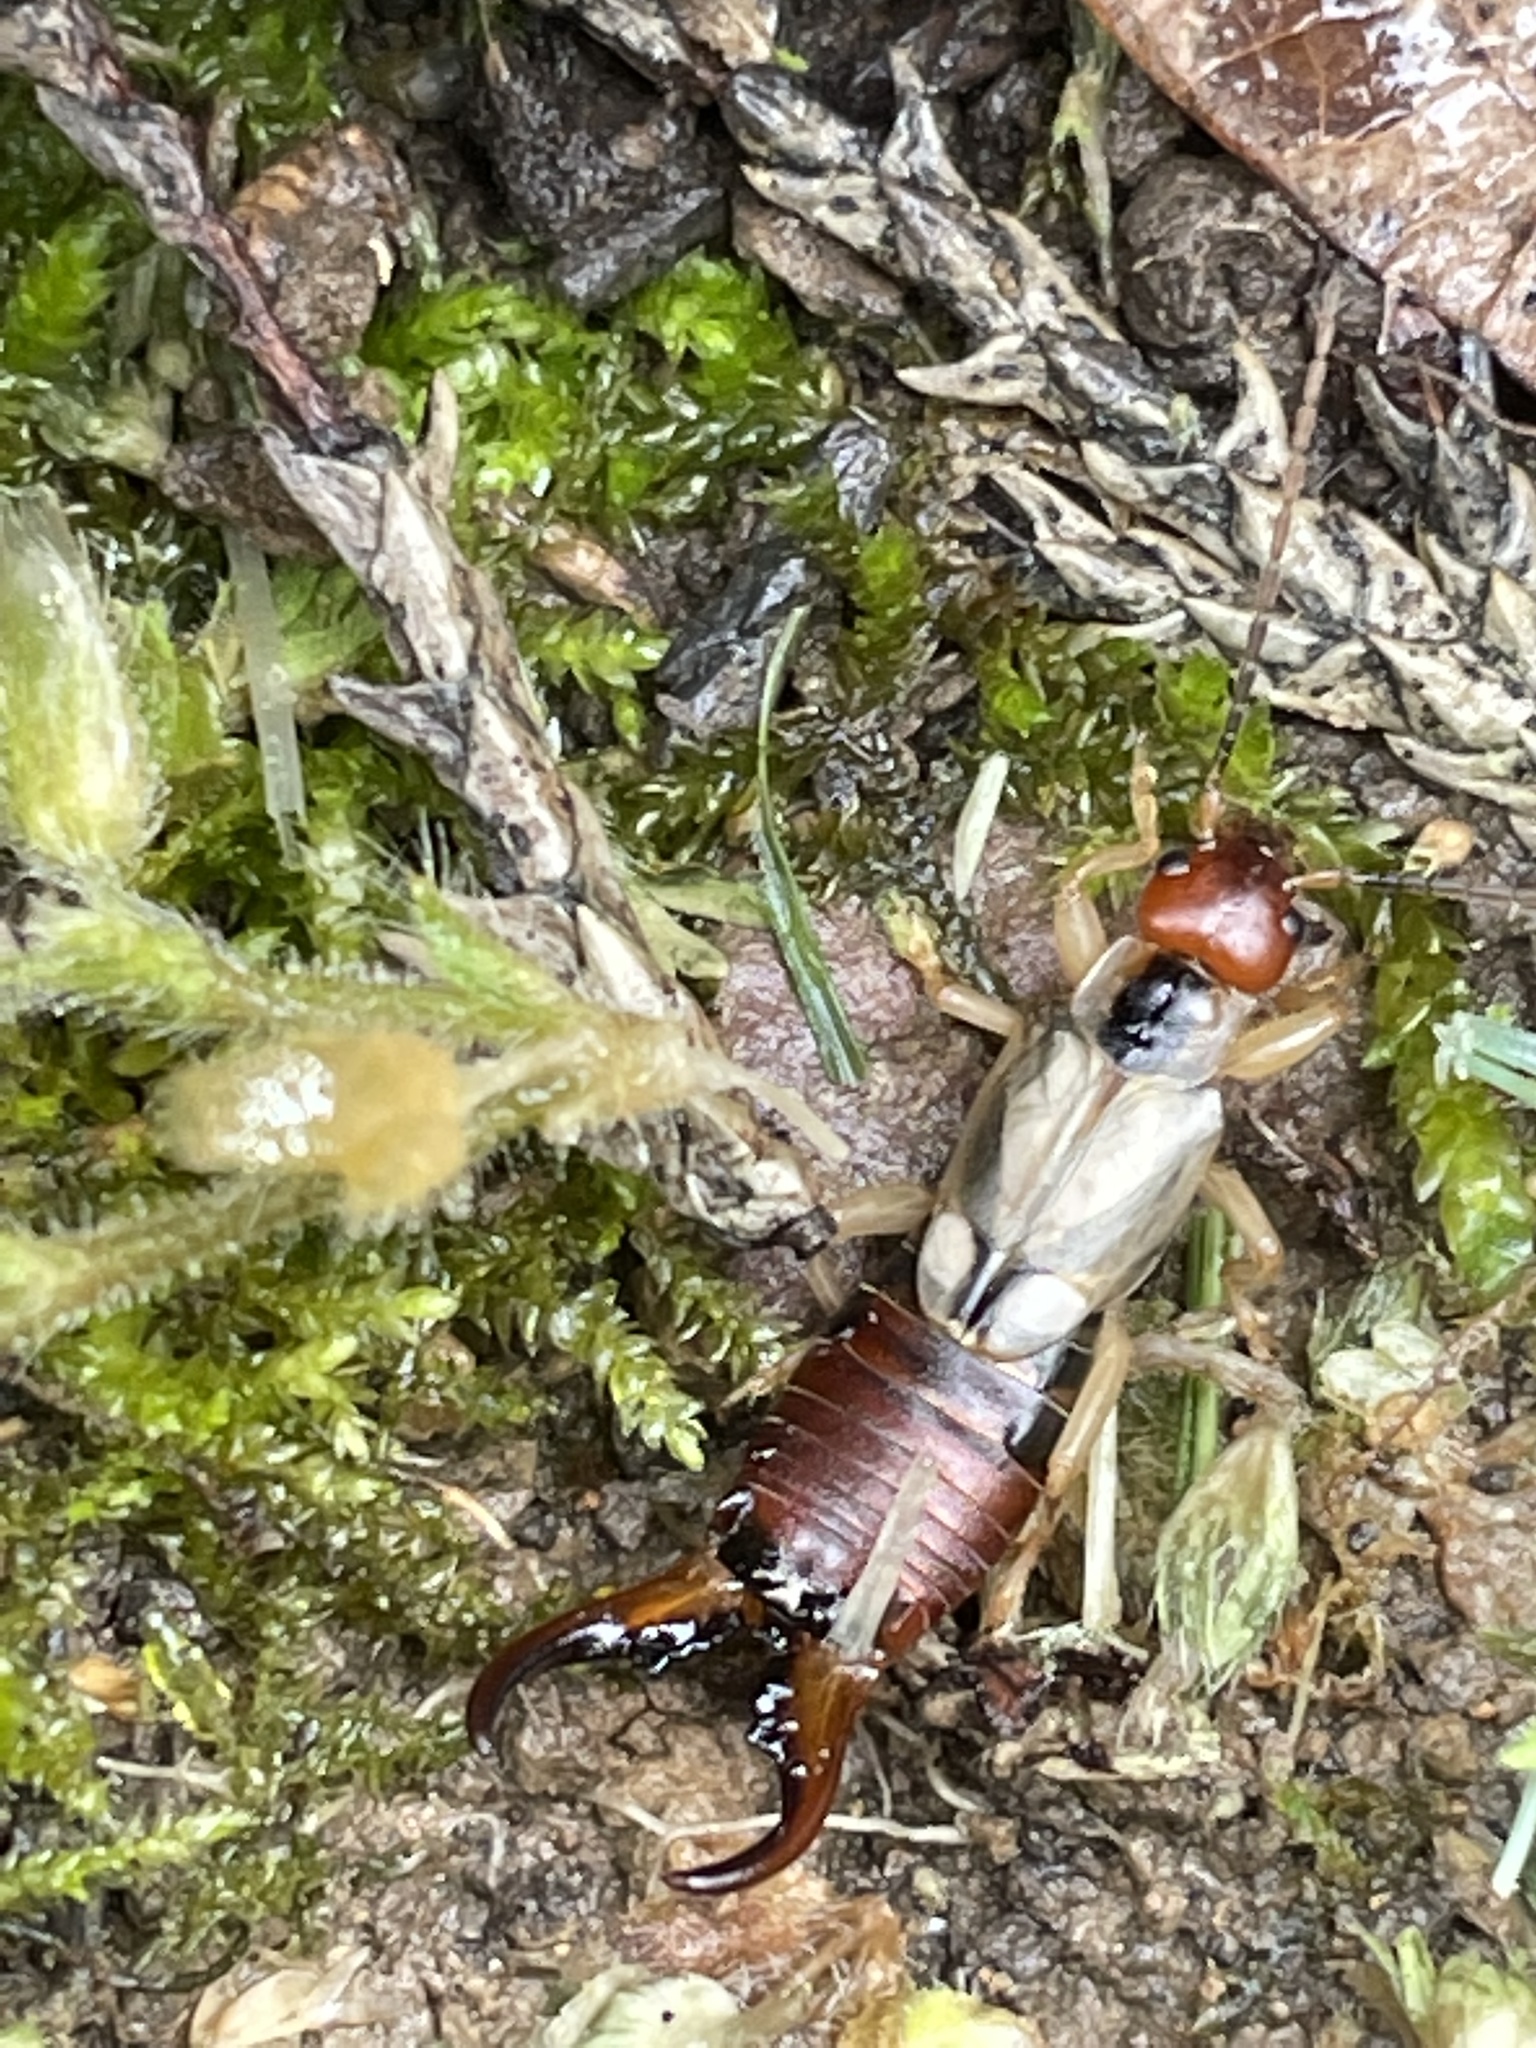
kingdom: Animalia
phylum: Arthropoda
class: Insecta
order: Dermaptera
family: Forficulidae
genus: Forficula
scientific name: Forficula
